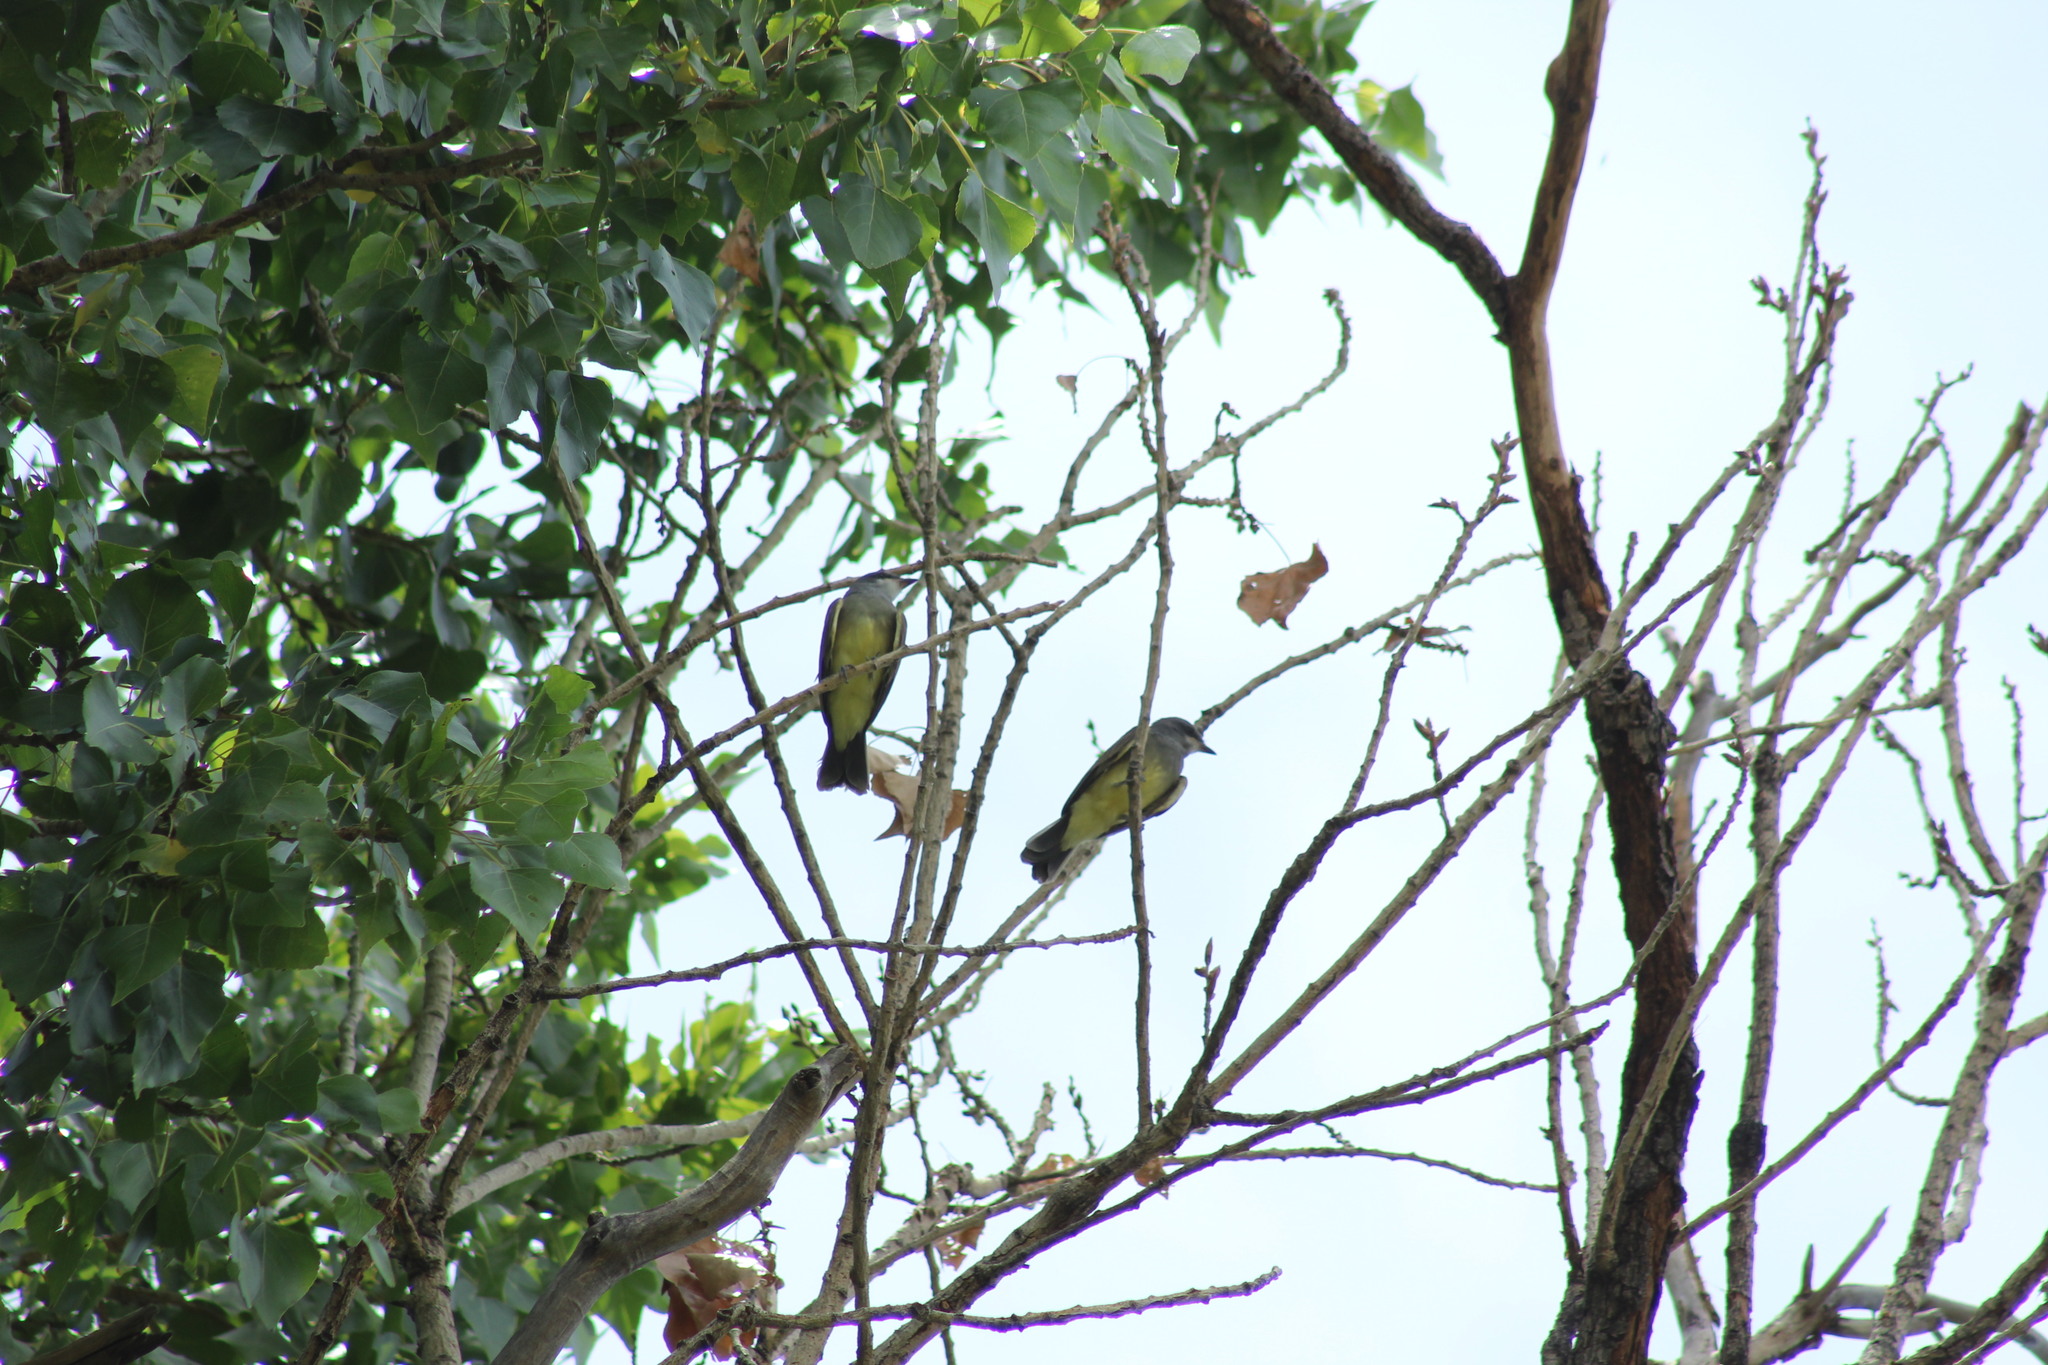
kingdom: Animalia
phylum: Chordata
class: Aves
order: Passeriformes
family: Tyrannidae
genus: Tyrannus
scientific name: Tyrannus verticalis
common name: Western kingbird
